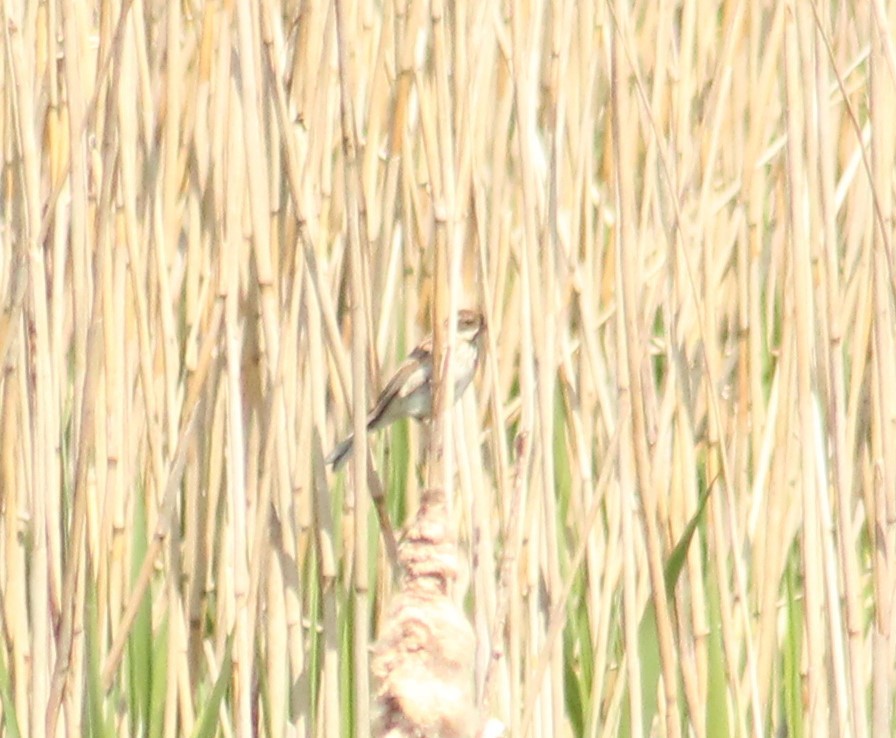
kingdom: Animalia
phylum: Chordata
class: Aves
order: Passeriformes
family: Emberizidae
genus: Emberiza
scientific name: Emberiza schoeniclus
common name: Reed bunting
